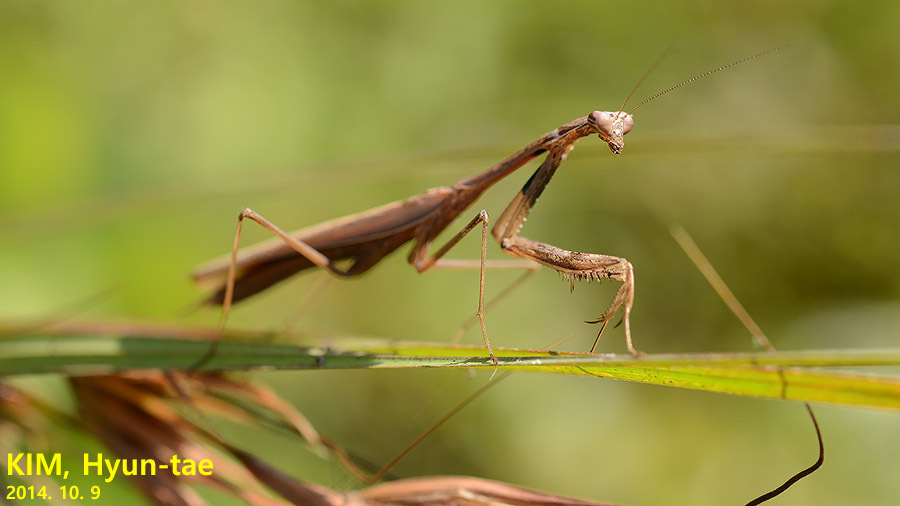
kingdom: Animalia
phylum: Arthropoda
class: Insecta
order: Mantodea
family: Mantidae
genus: Statilia
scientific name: Statilia maculata
